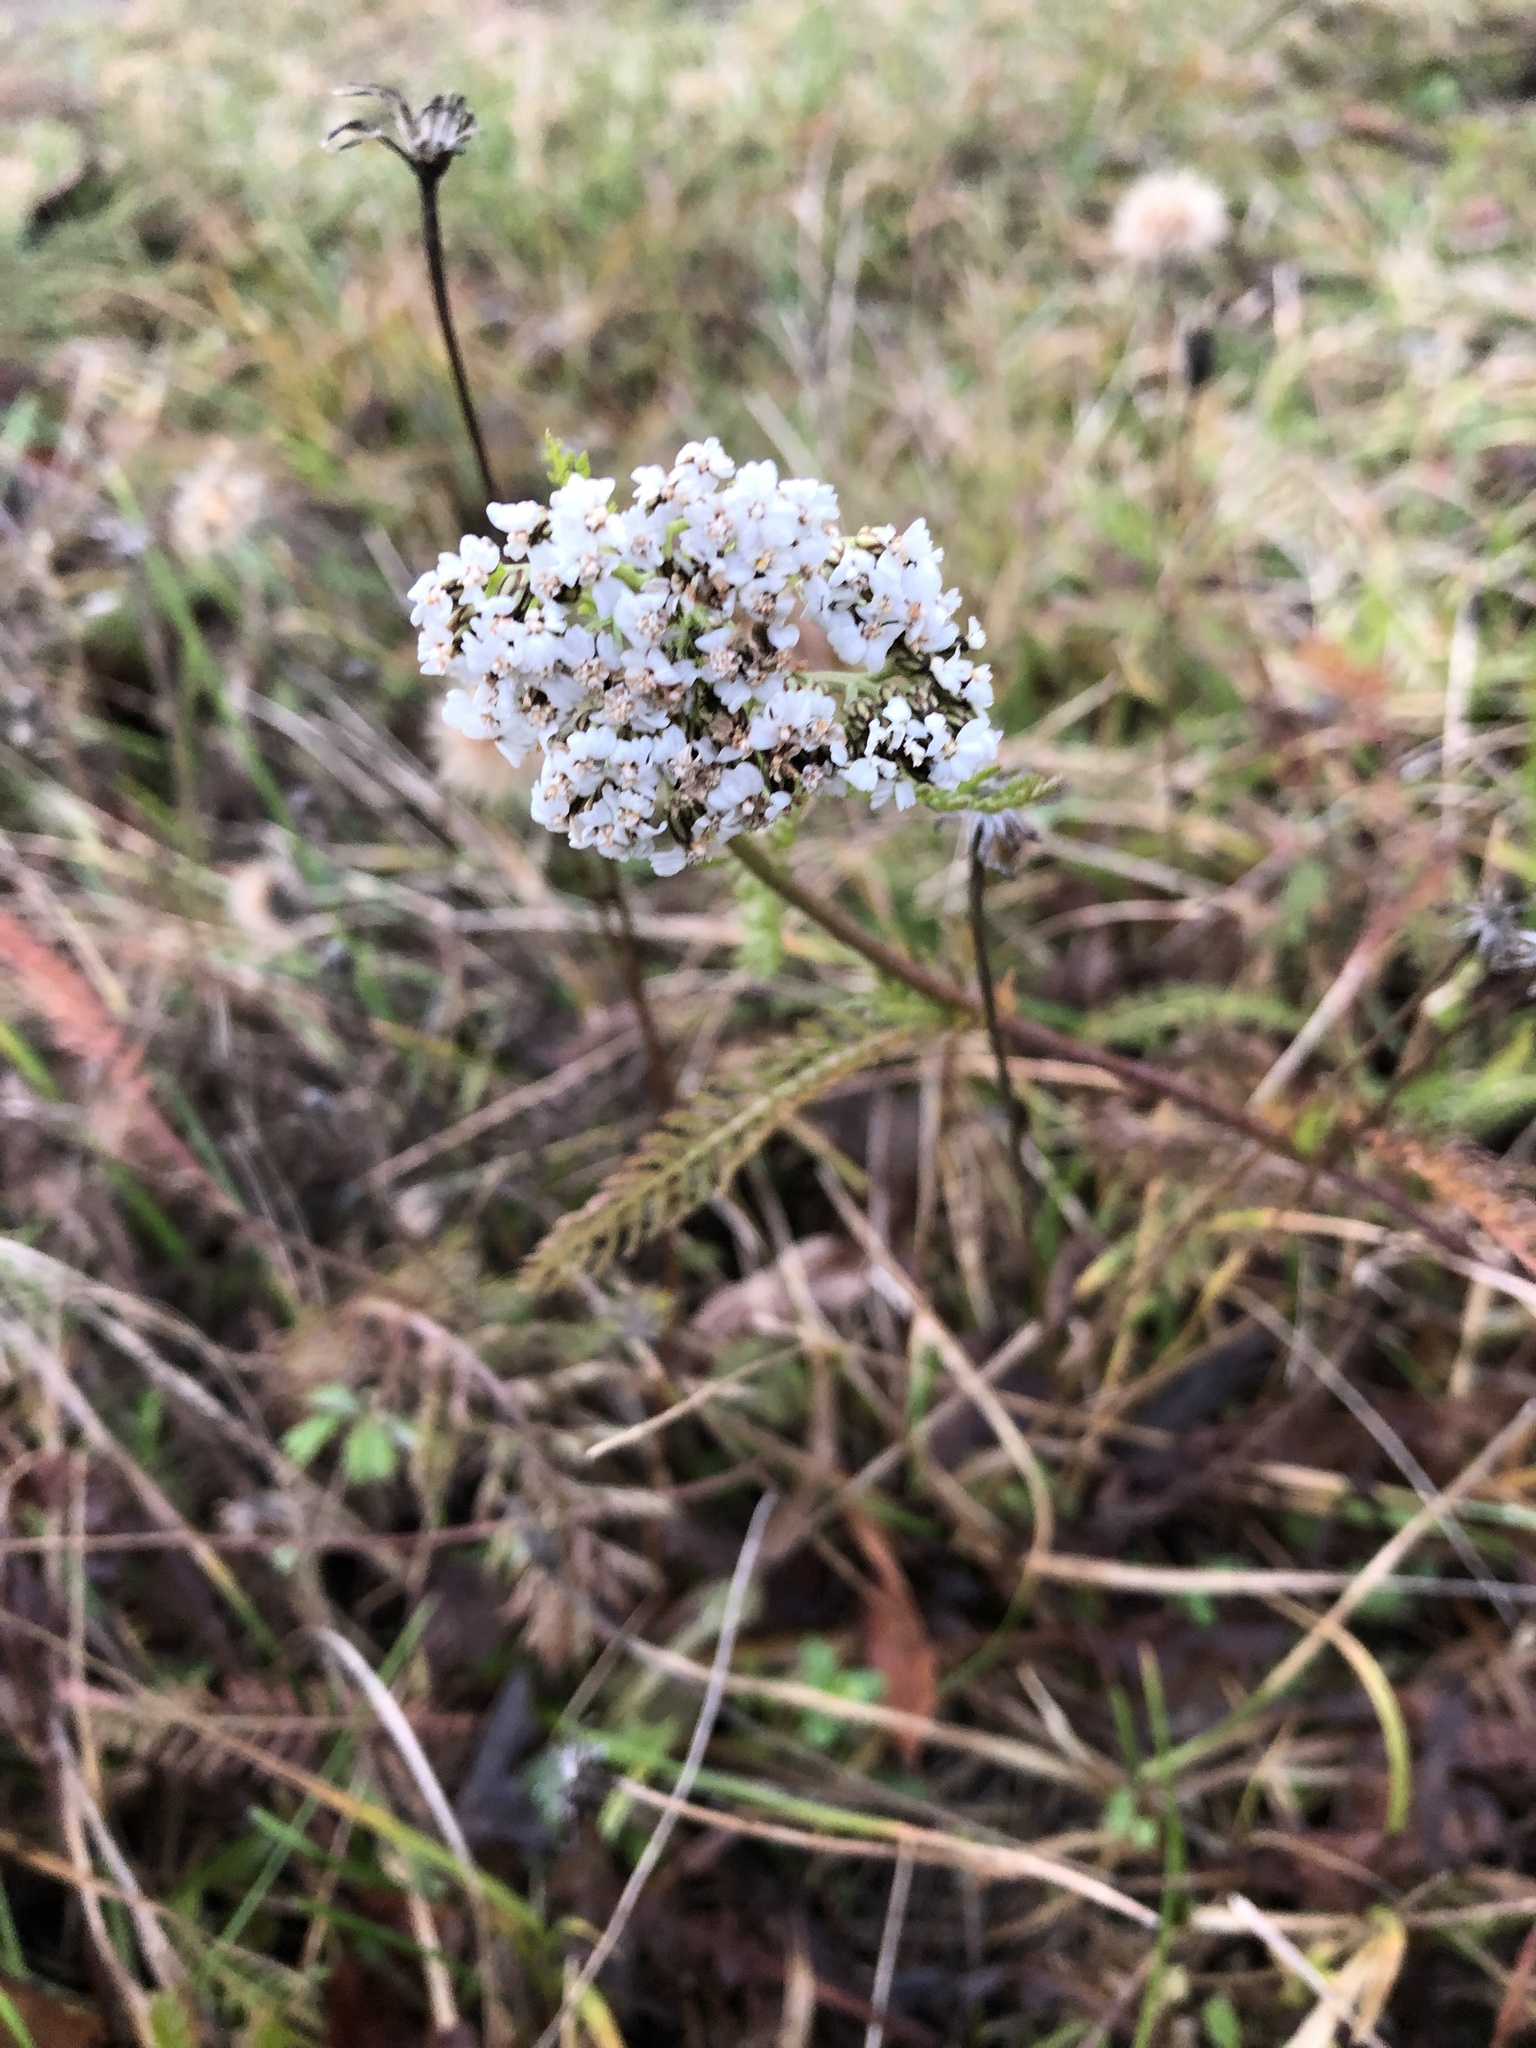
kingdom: Plantae
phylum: Tracheophyta
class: Magnoliopsida
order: Asterales
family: Asteraceae
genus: Achillea
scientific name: Achillea millefolium
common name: Yarrow
